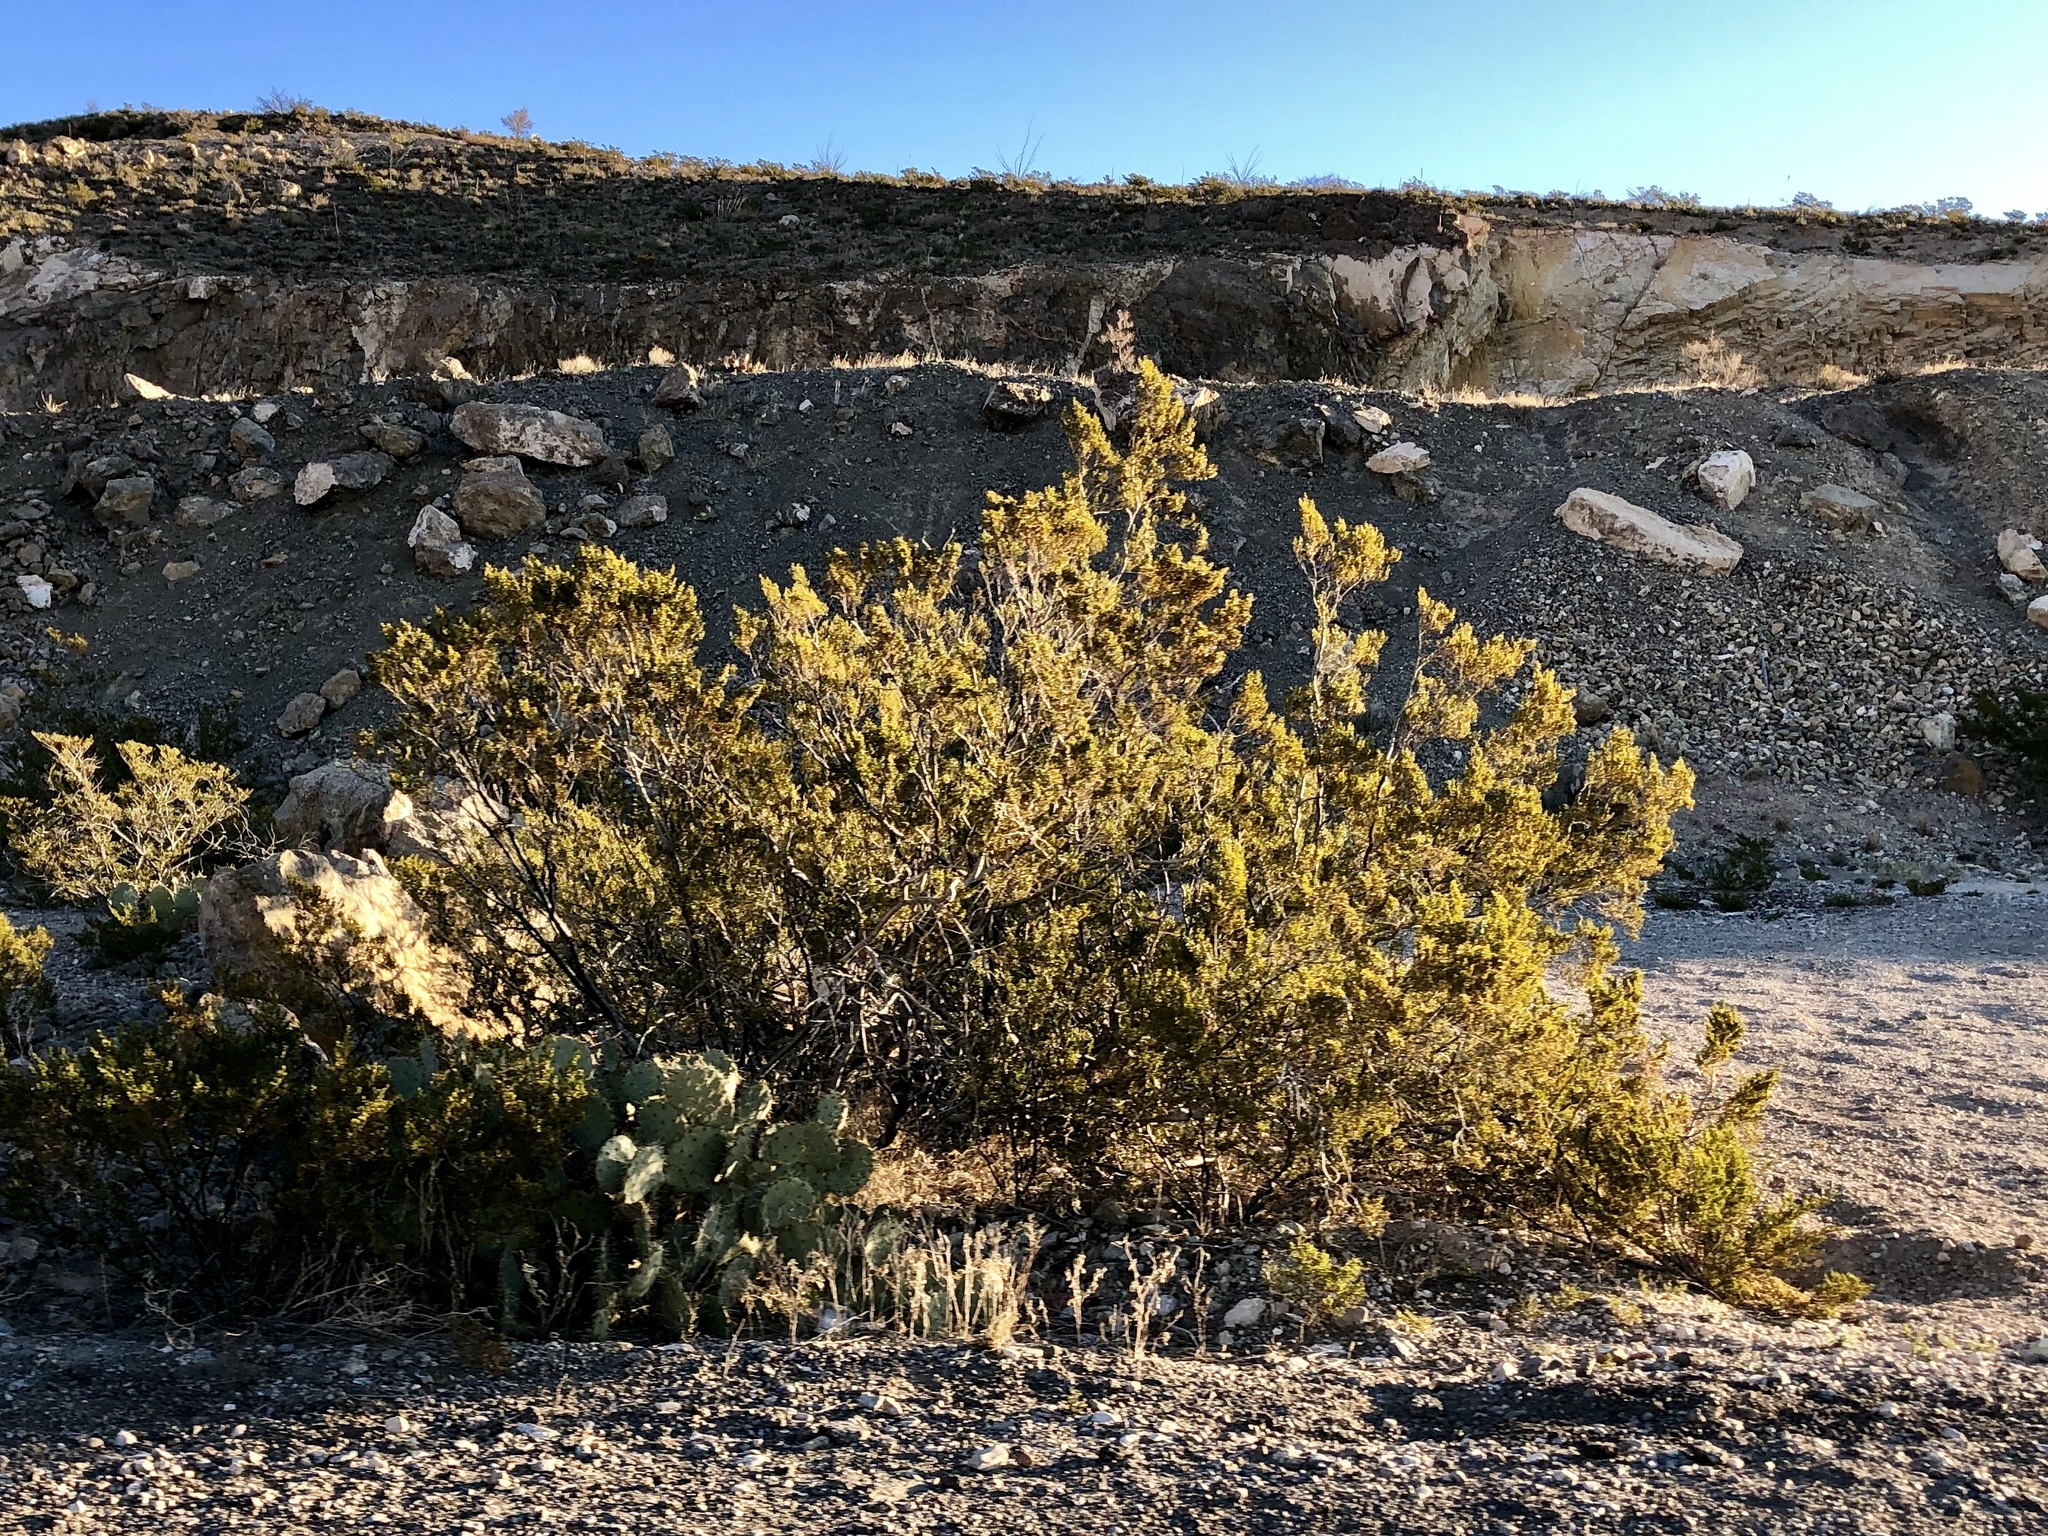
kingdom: Plantae
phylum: Tracheophyta
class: Magnoliopsida
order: Zygophyllales
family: Zygophyllaceae
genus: Larrea
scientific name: Larrea tridentata
